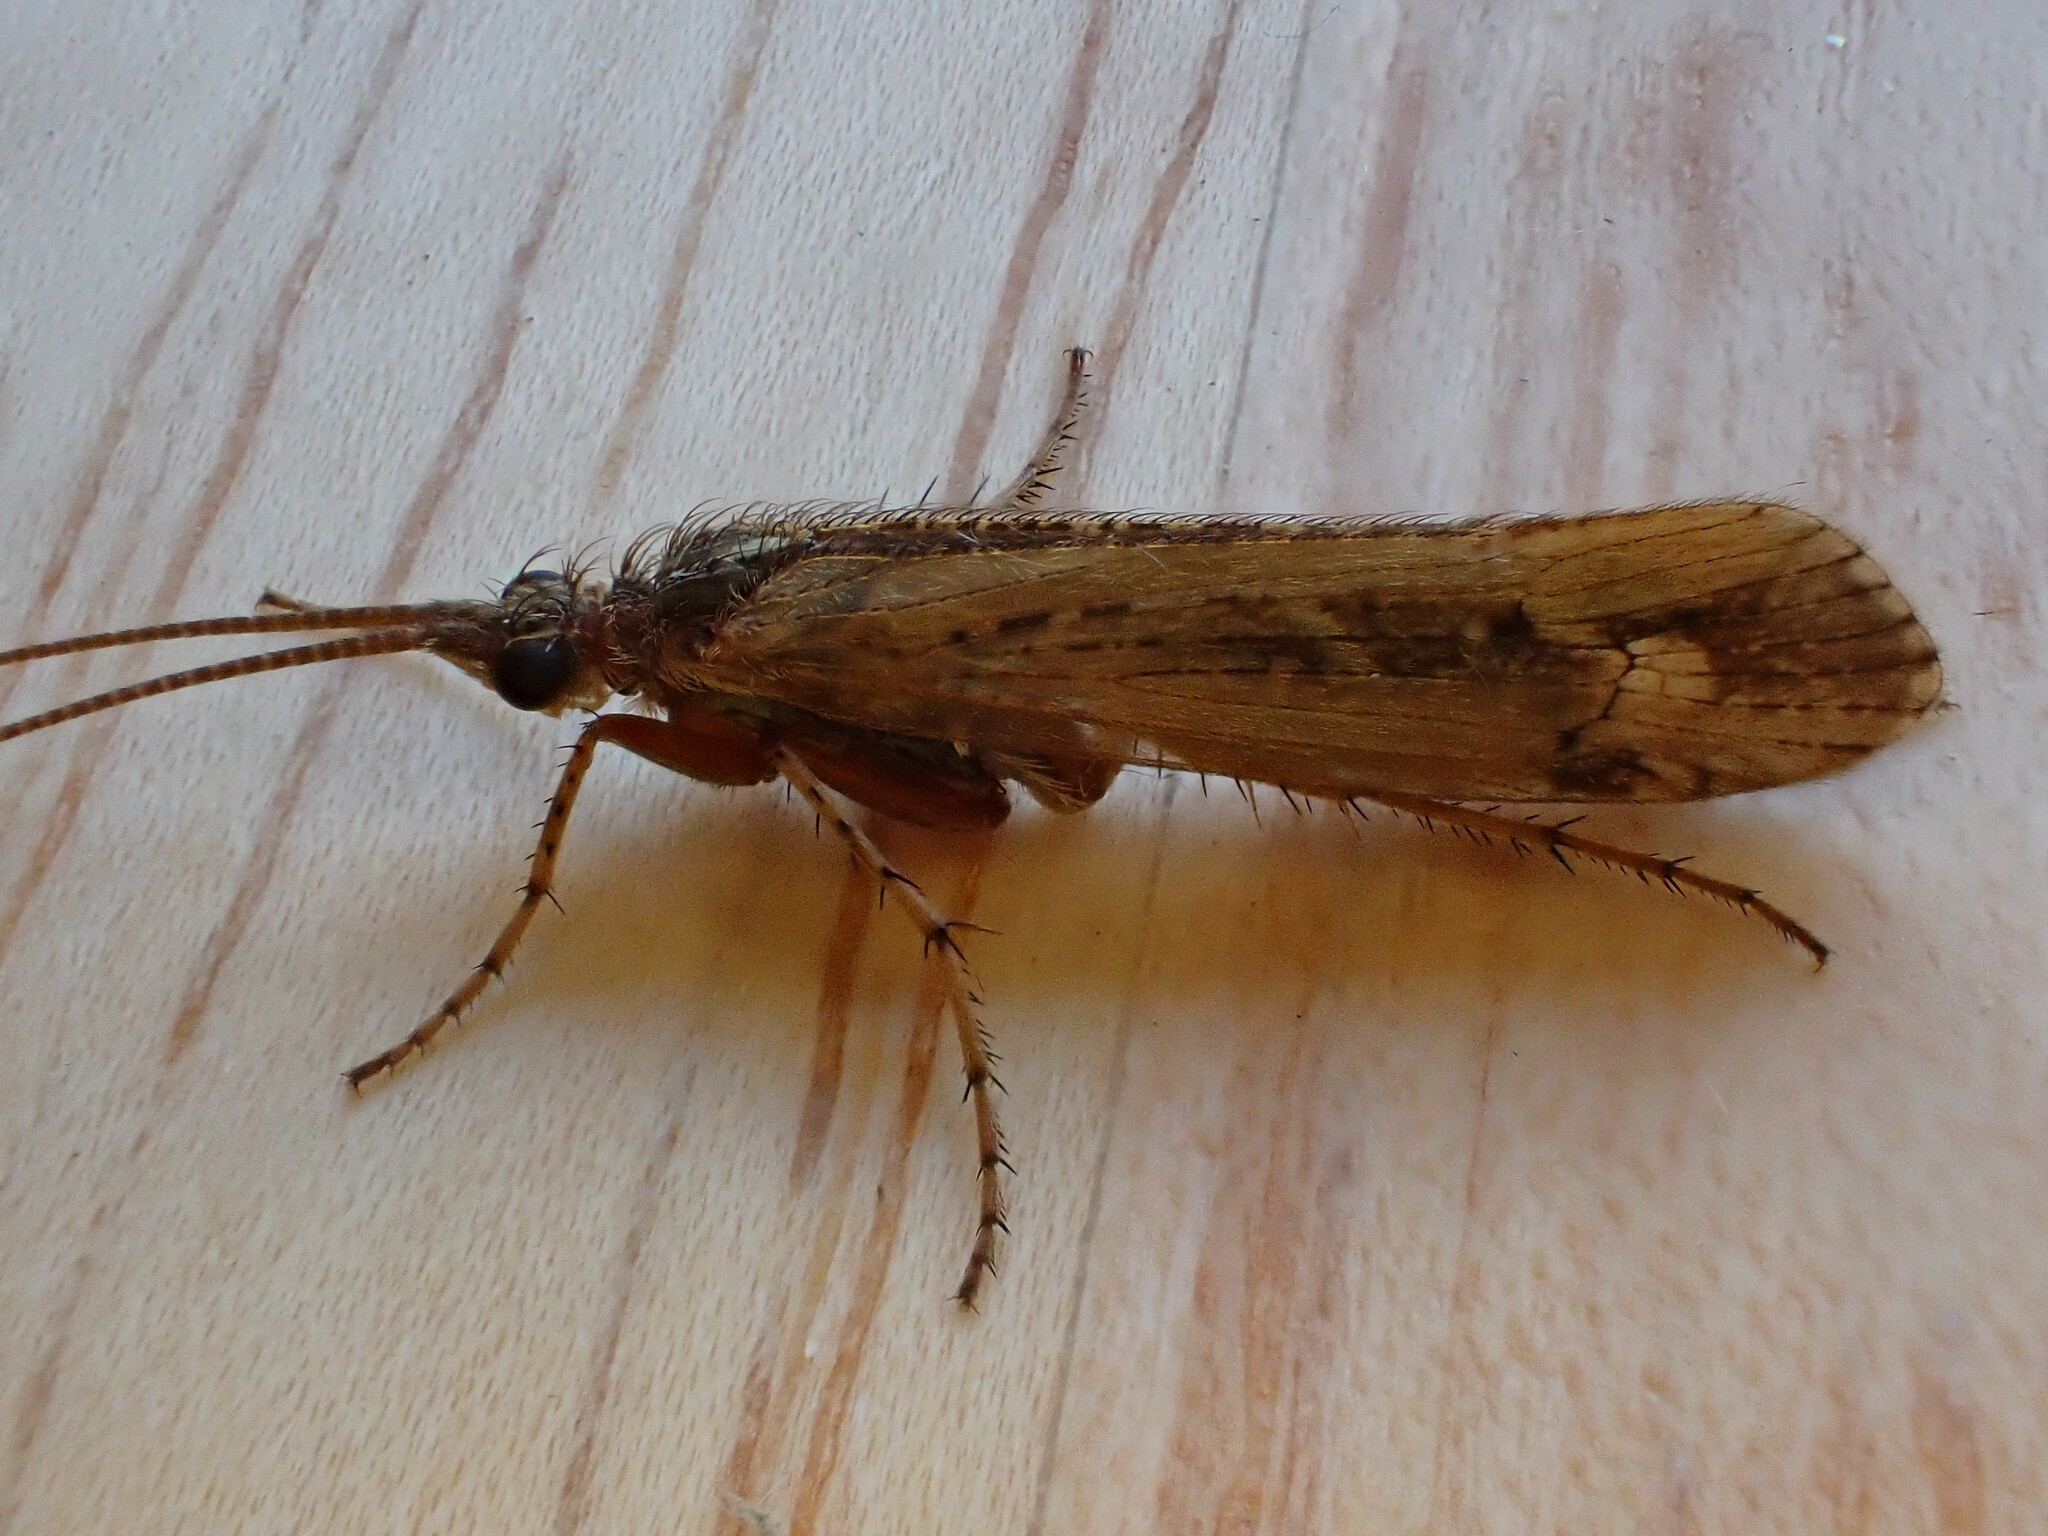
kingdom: Animalia
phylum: Arthropoda
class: Insecta
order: Trichoptera
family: Limnephilidae
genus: Limnephilus
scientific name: Limnephilus affinis
